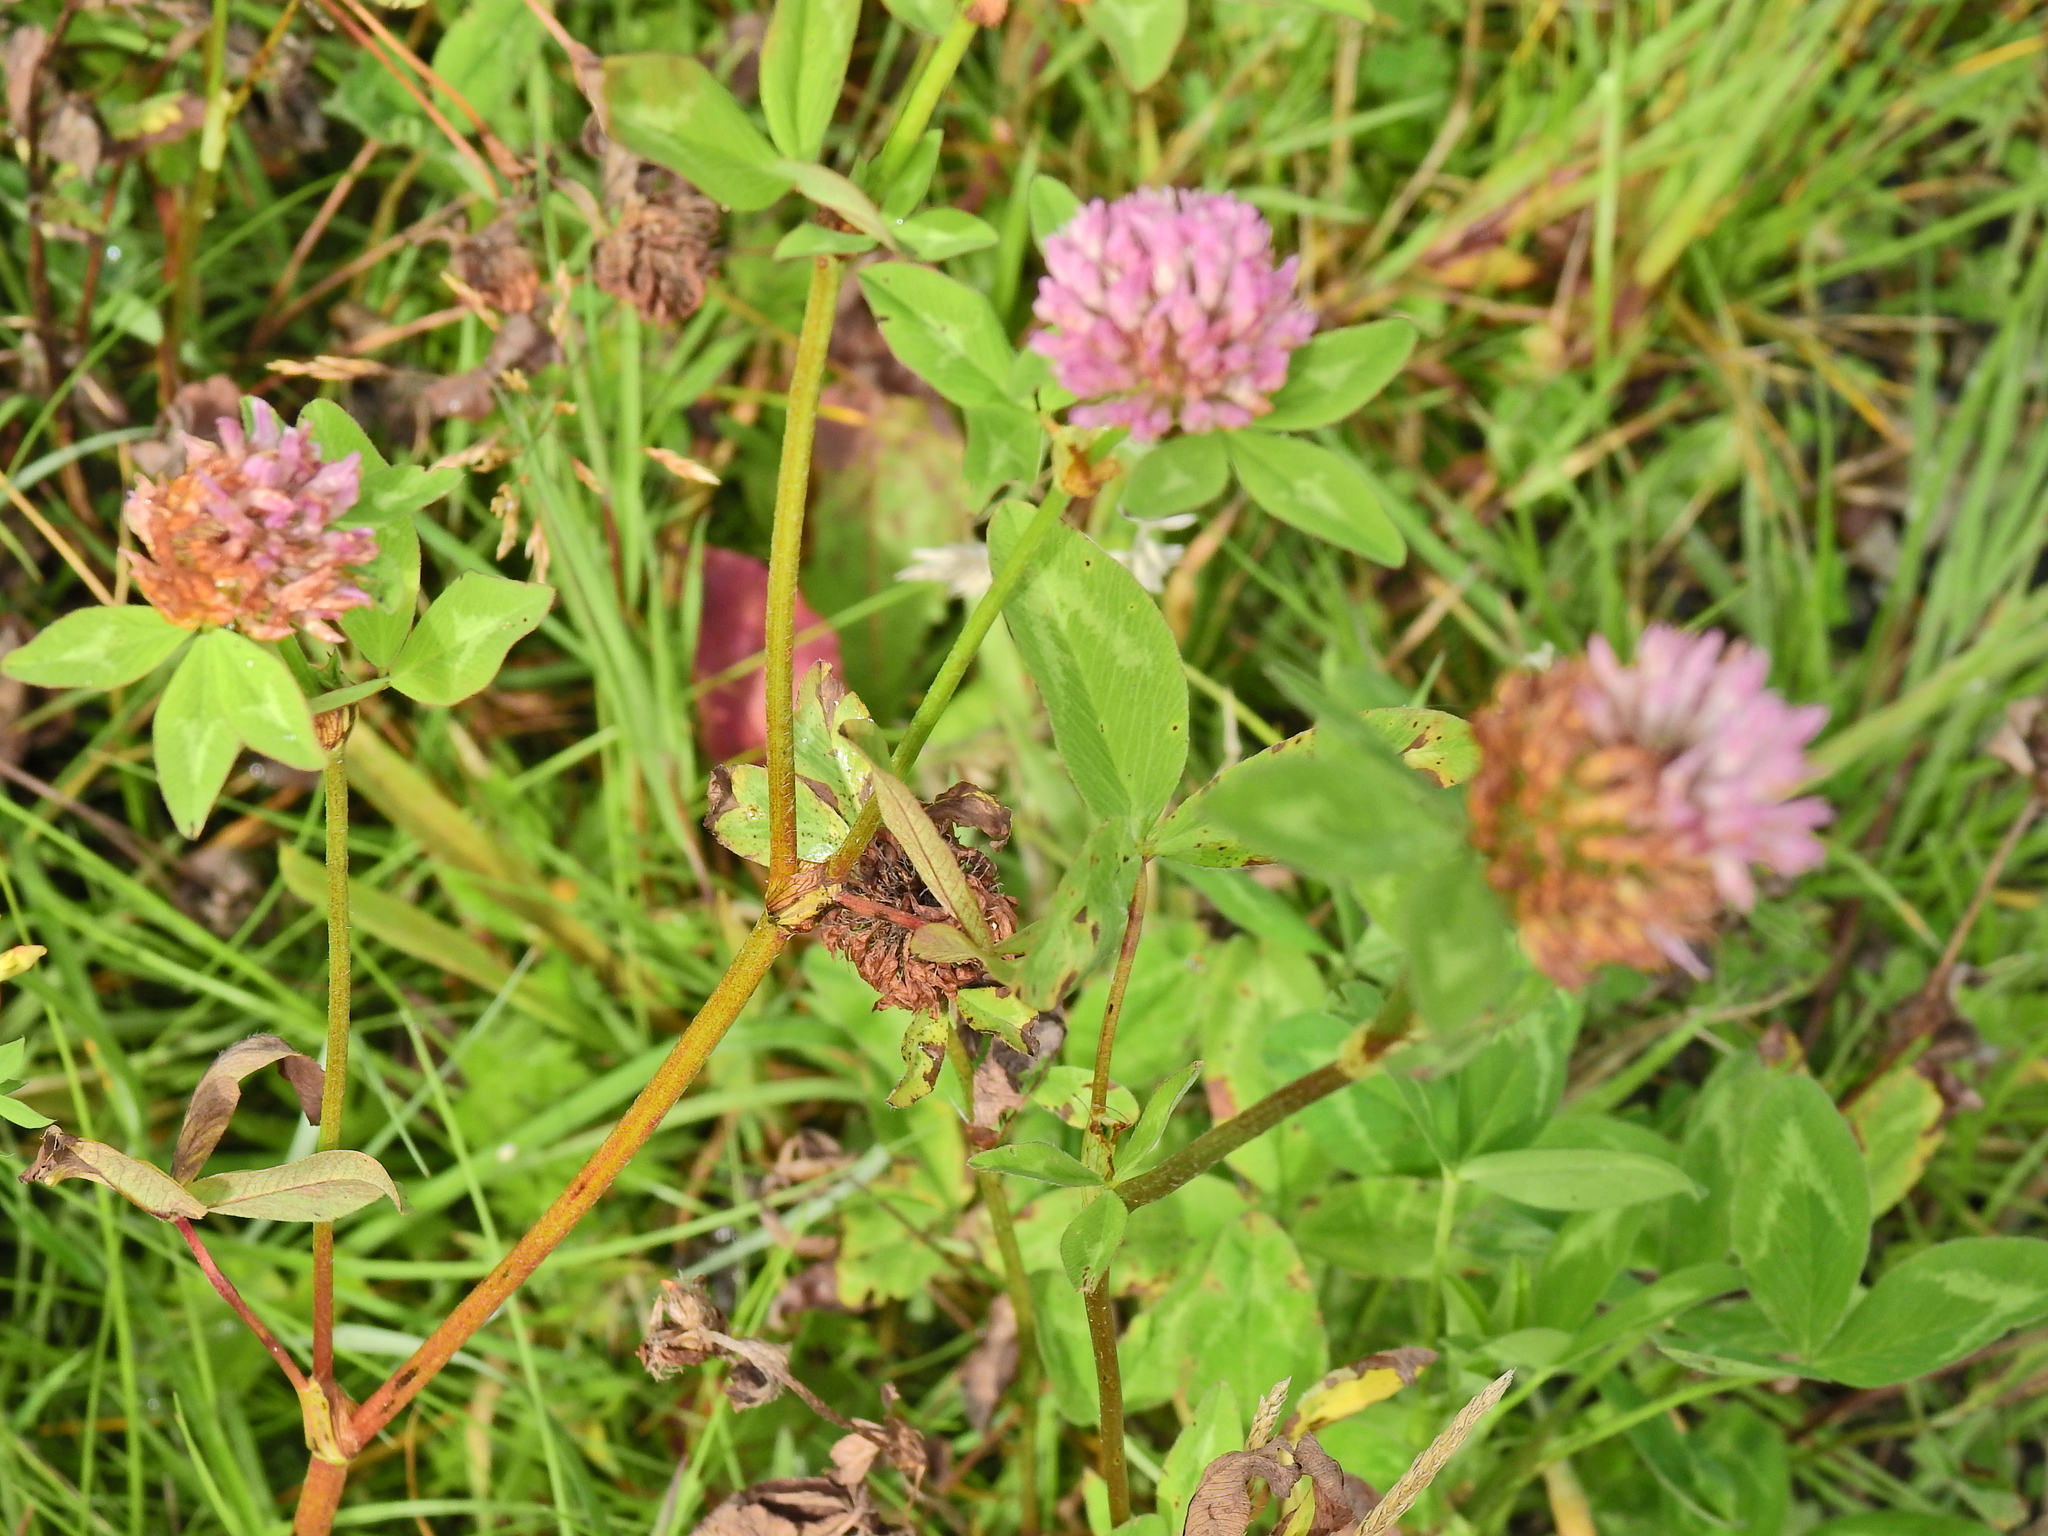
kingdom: Plantae
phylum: Tracheophyta
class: Magnoliopsida
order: Fabales
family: Fabaceae
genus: Trifolium
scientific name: Trifolium pratense
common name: Red clover
